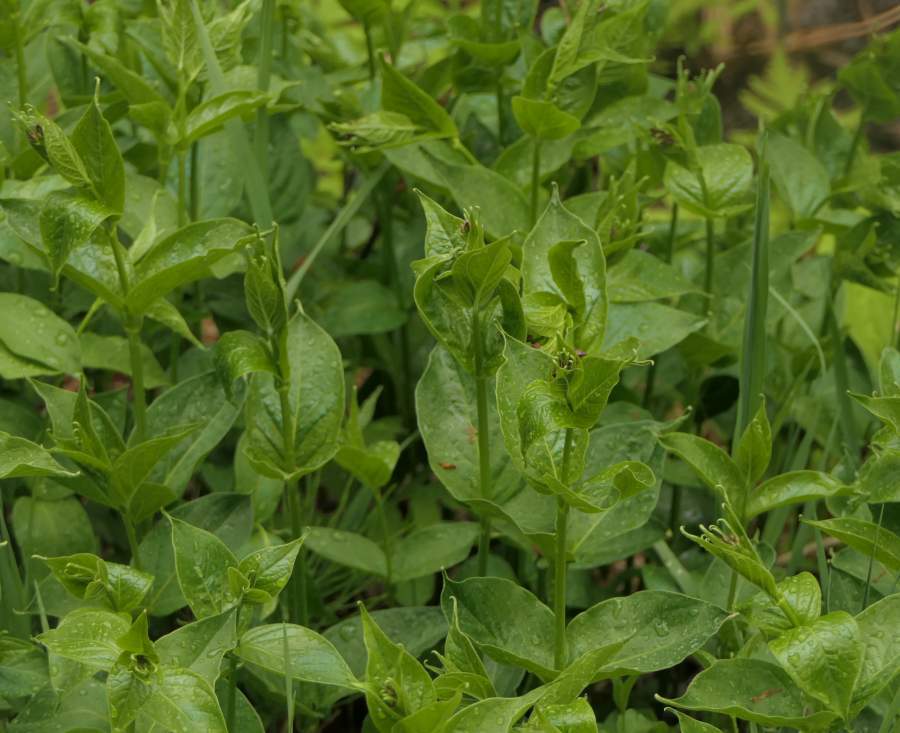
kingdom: Plantae
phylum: Tracheophyta
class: Magnoliopsida
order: Gentianales
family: Apocynaceae
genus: Vincetoxicum
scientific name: Vincetoxicum rossicum
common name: Dog-strangling vine
